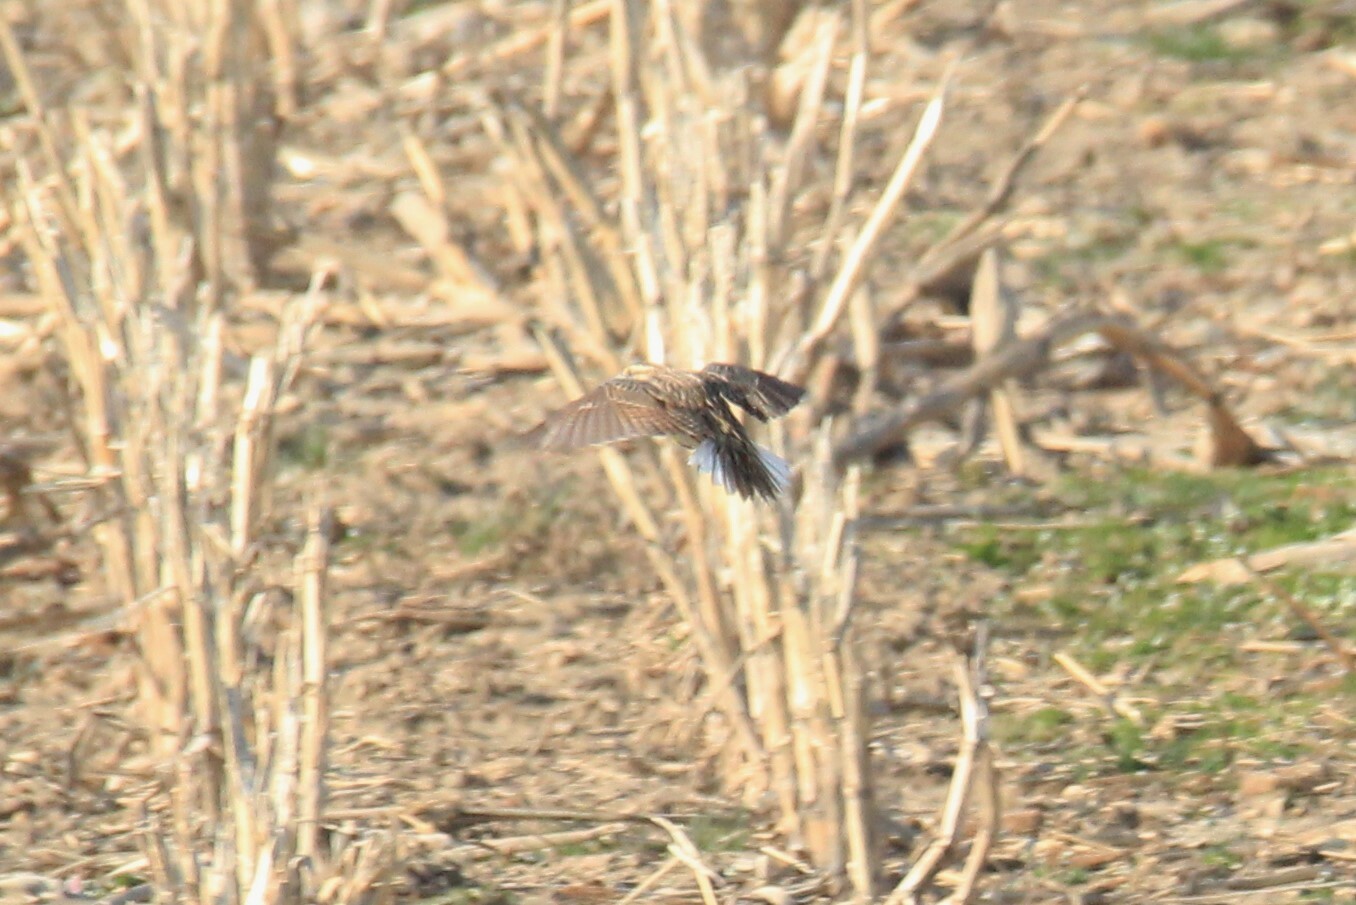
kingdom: Animalia
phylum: Chordata
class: Aves
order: Passeriformes
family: Icteridae
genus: Sturnella
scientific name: Sturnella magna
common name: Eastern meadowlark
